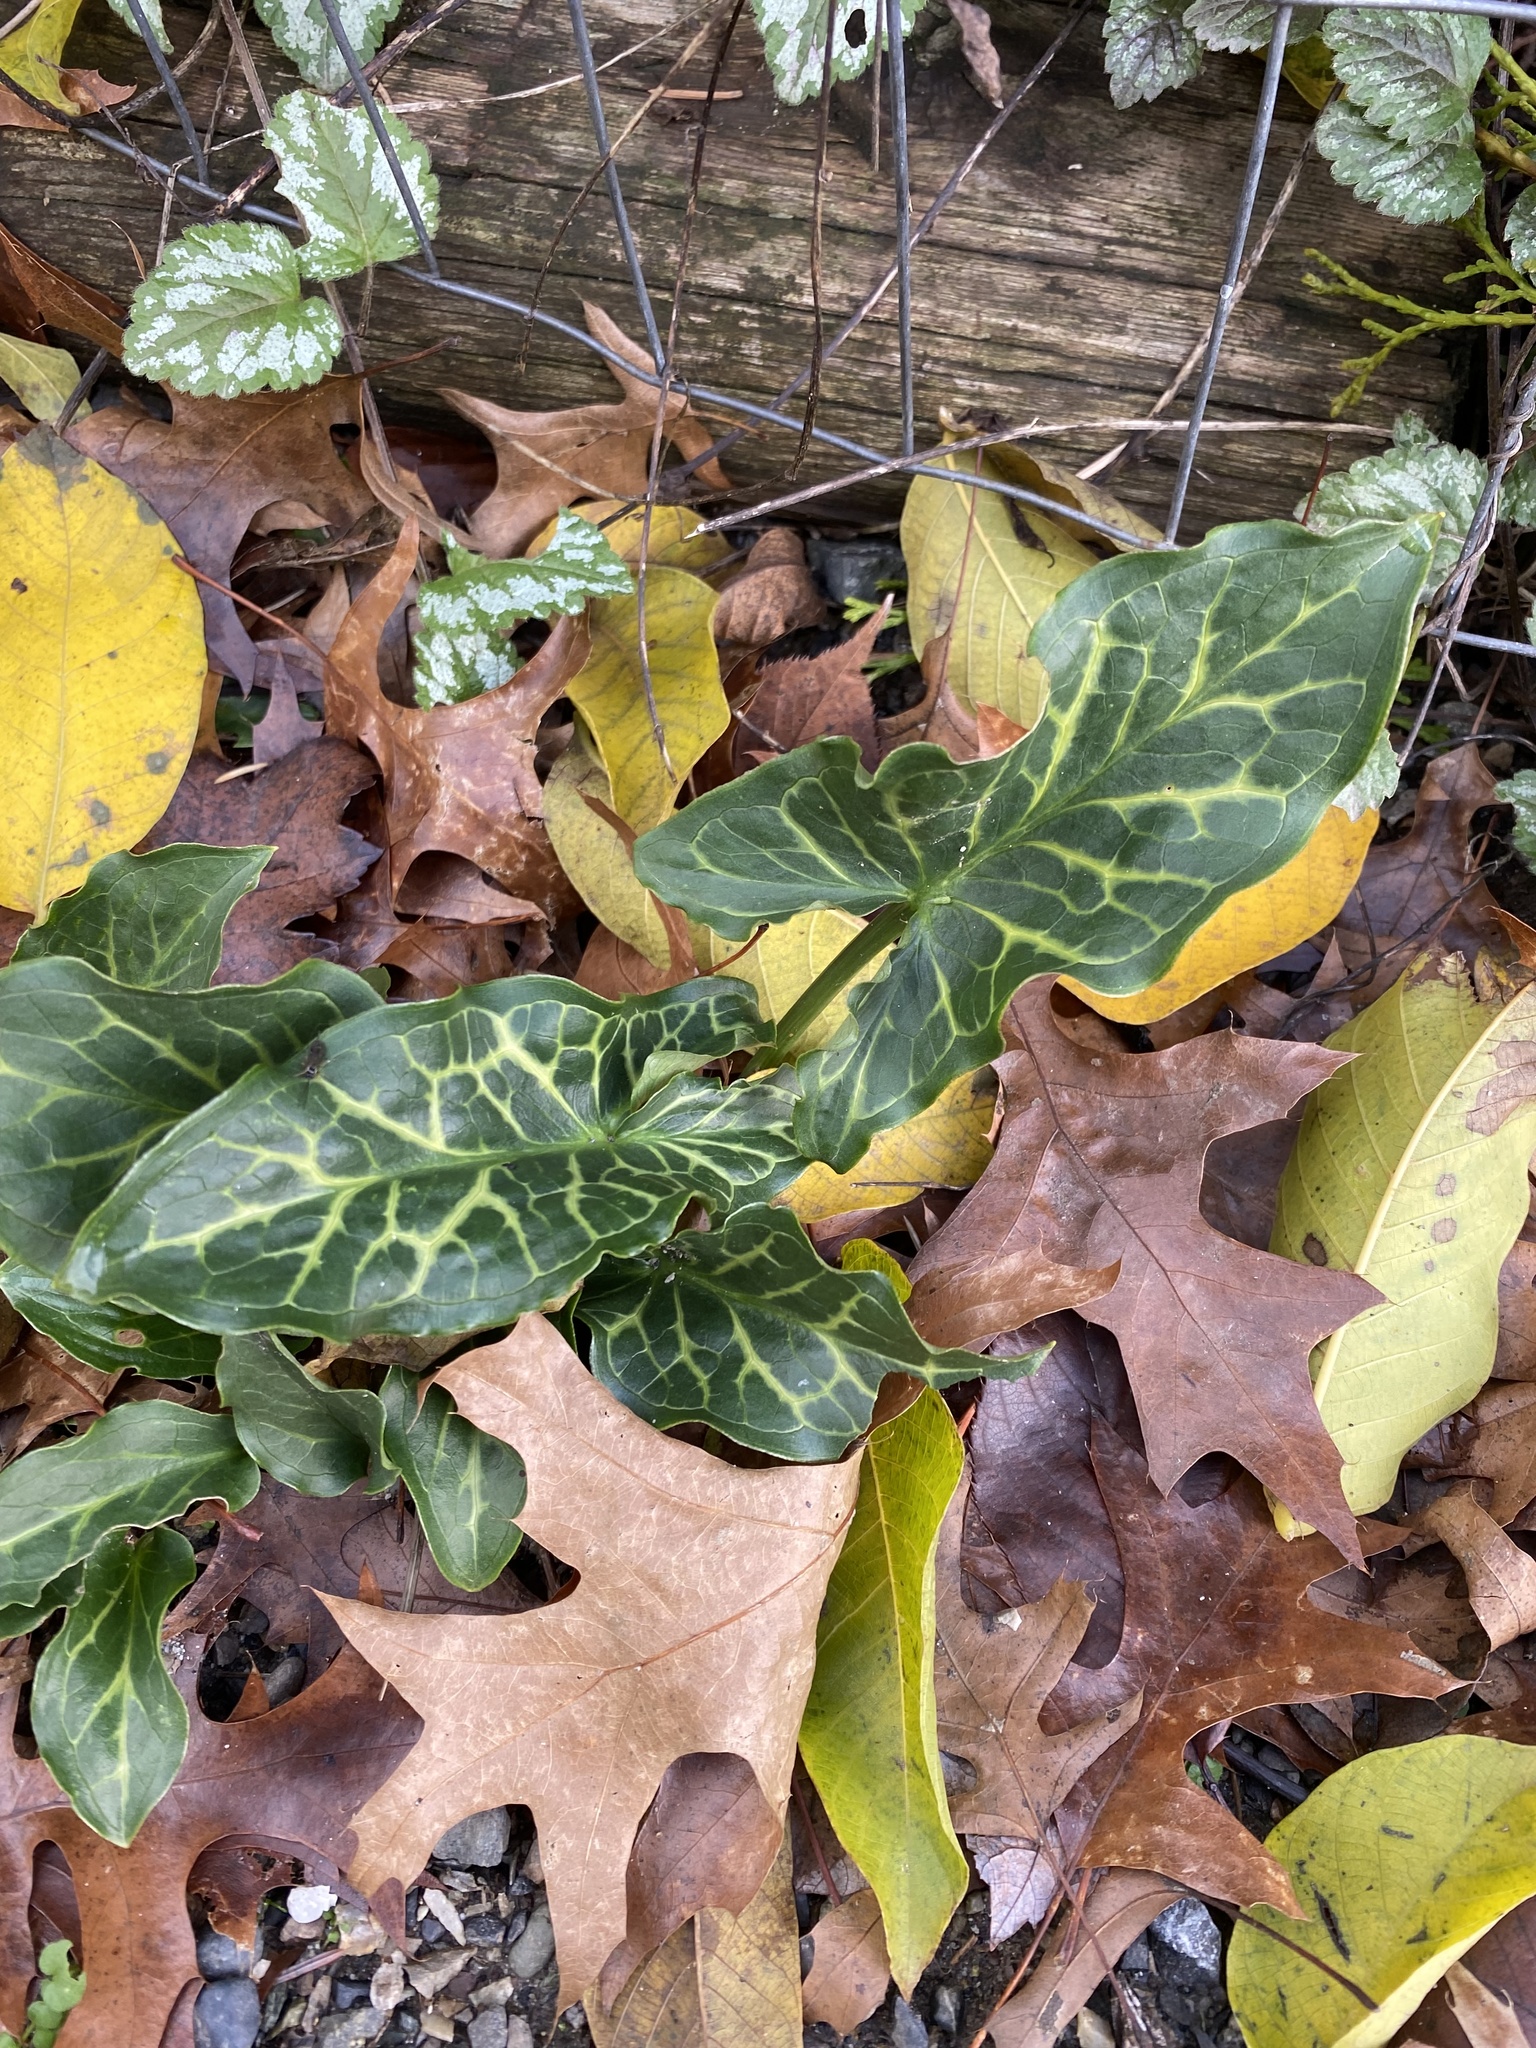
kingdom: Plantae
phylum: Tracheophyta
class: Liliopsida
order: Alismatales
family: Araceae
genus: Arum
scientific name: Arum italicum
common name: Italian lords-and-ladies
